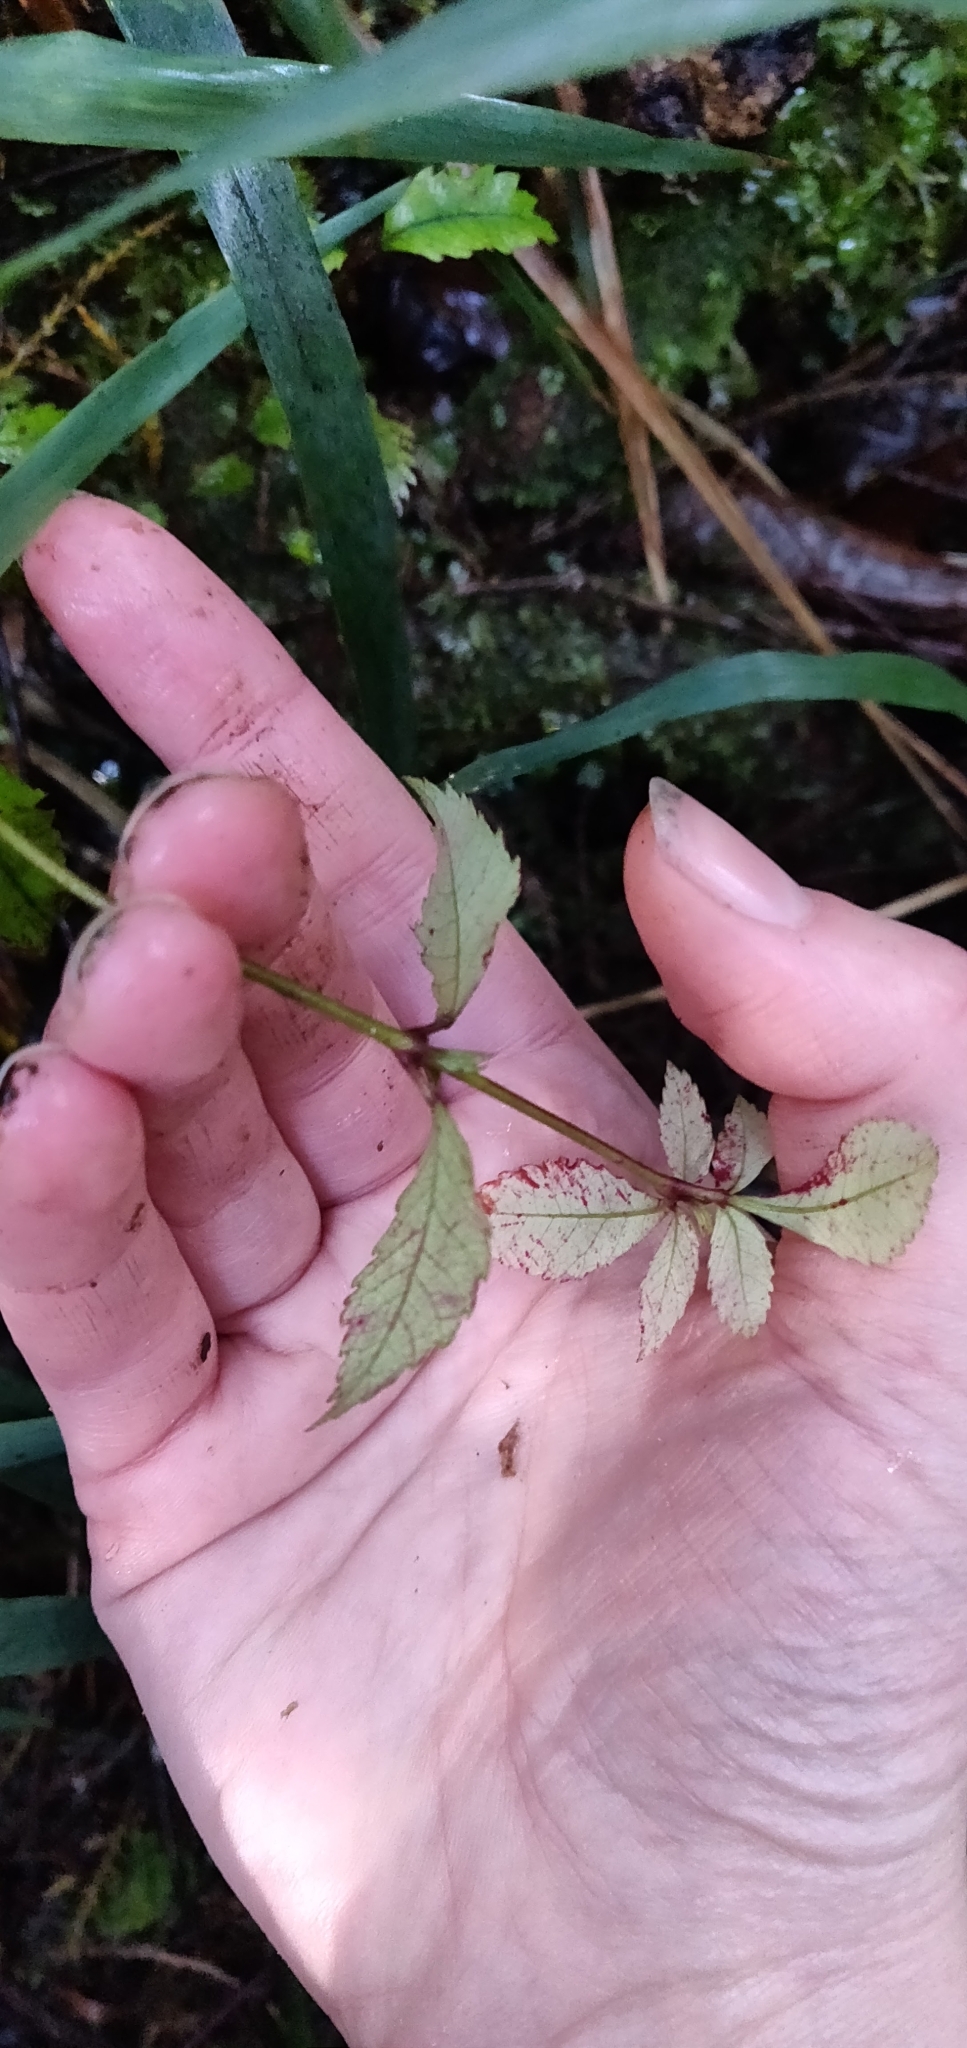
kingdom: Plantae
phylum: Tracheophyta
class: Magnoliopsida
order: Oxalidales
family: Cunoniaceae
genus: Pterophylla
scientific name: Pterophylla racemosa
